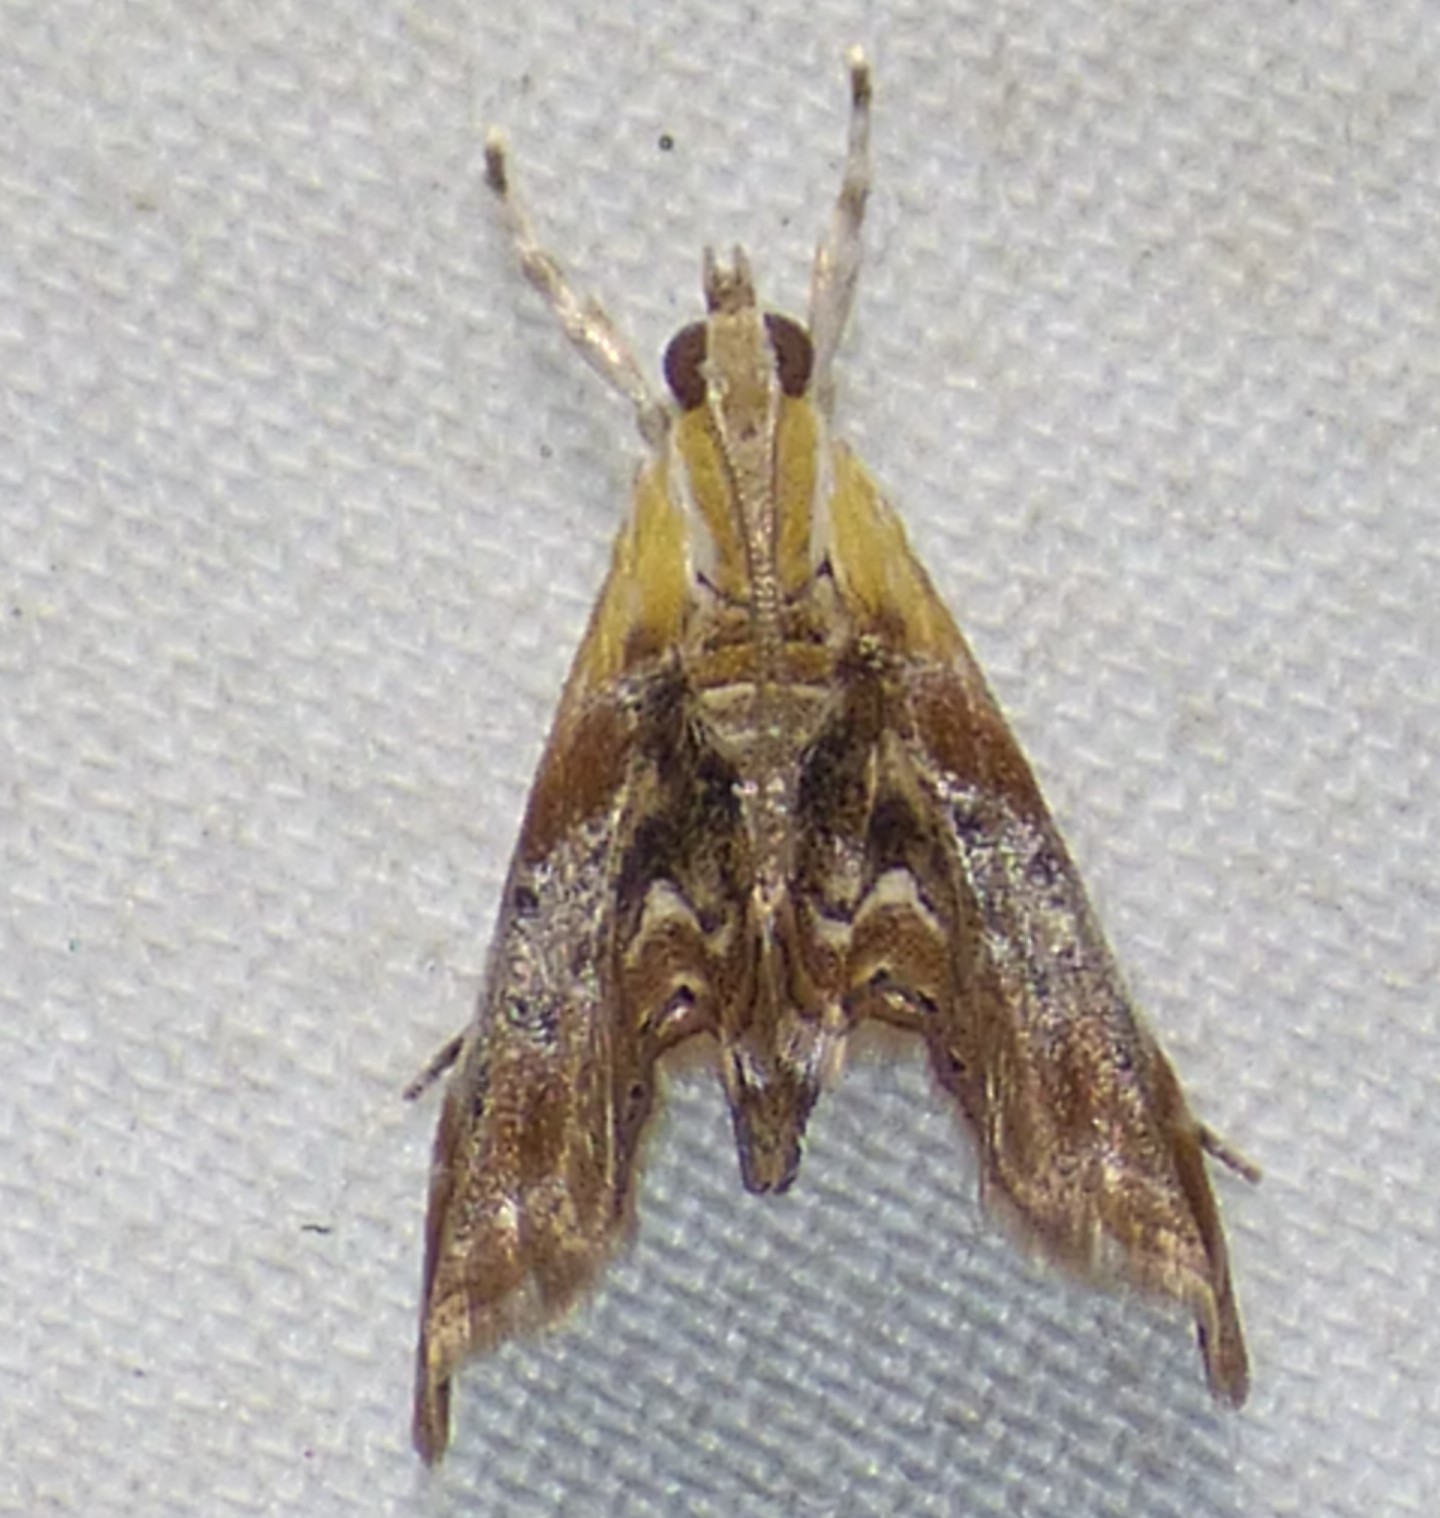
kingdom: Animalia
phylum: Arthropoda
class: Insecta
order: Lepidoptera
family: Crambidae
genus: Dicymolomia
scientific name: Dicymolomia julianalis
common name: Julia's dicymolomia moth
